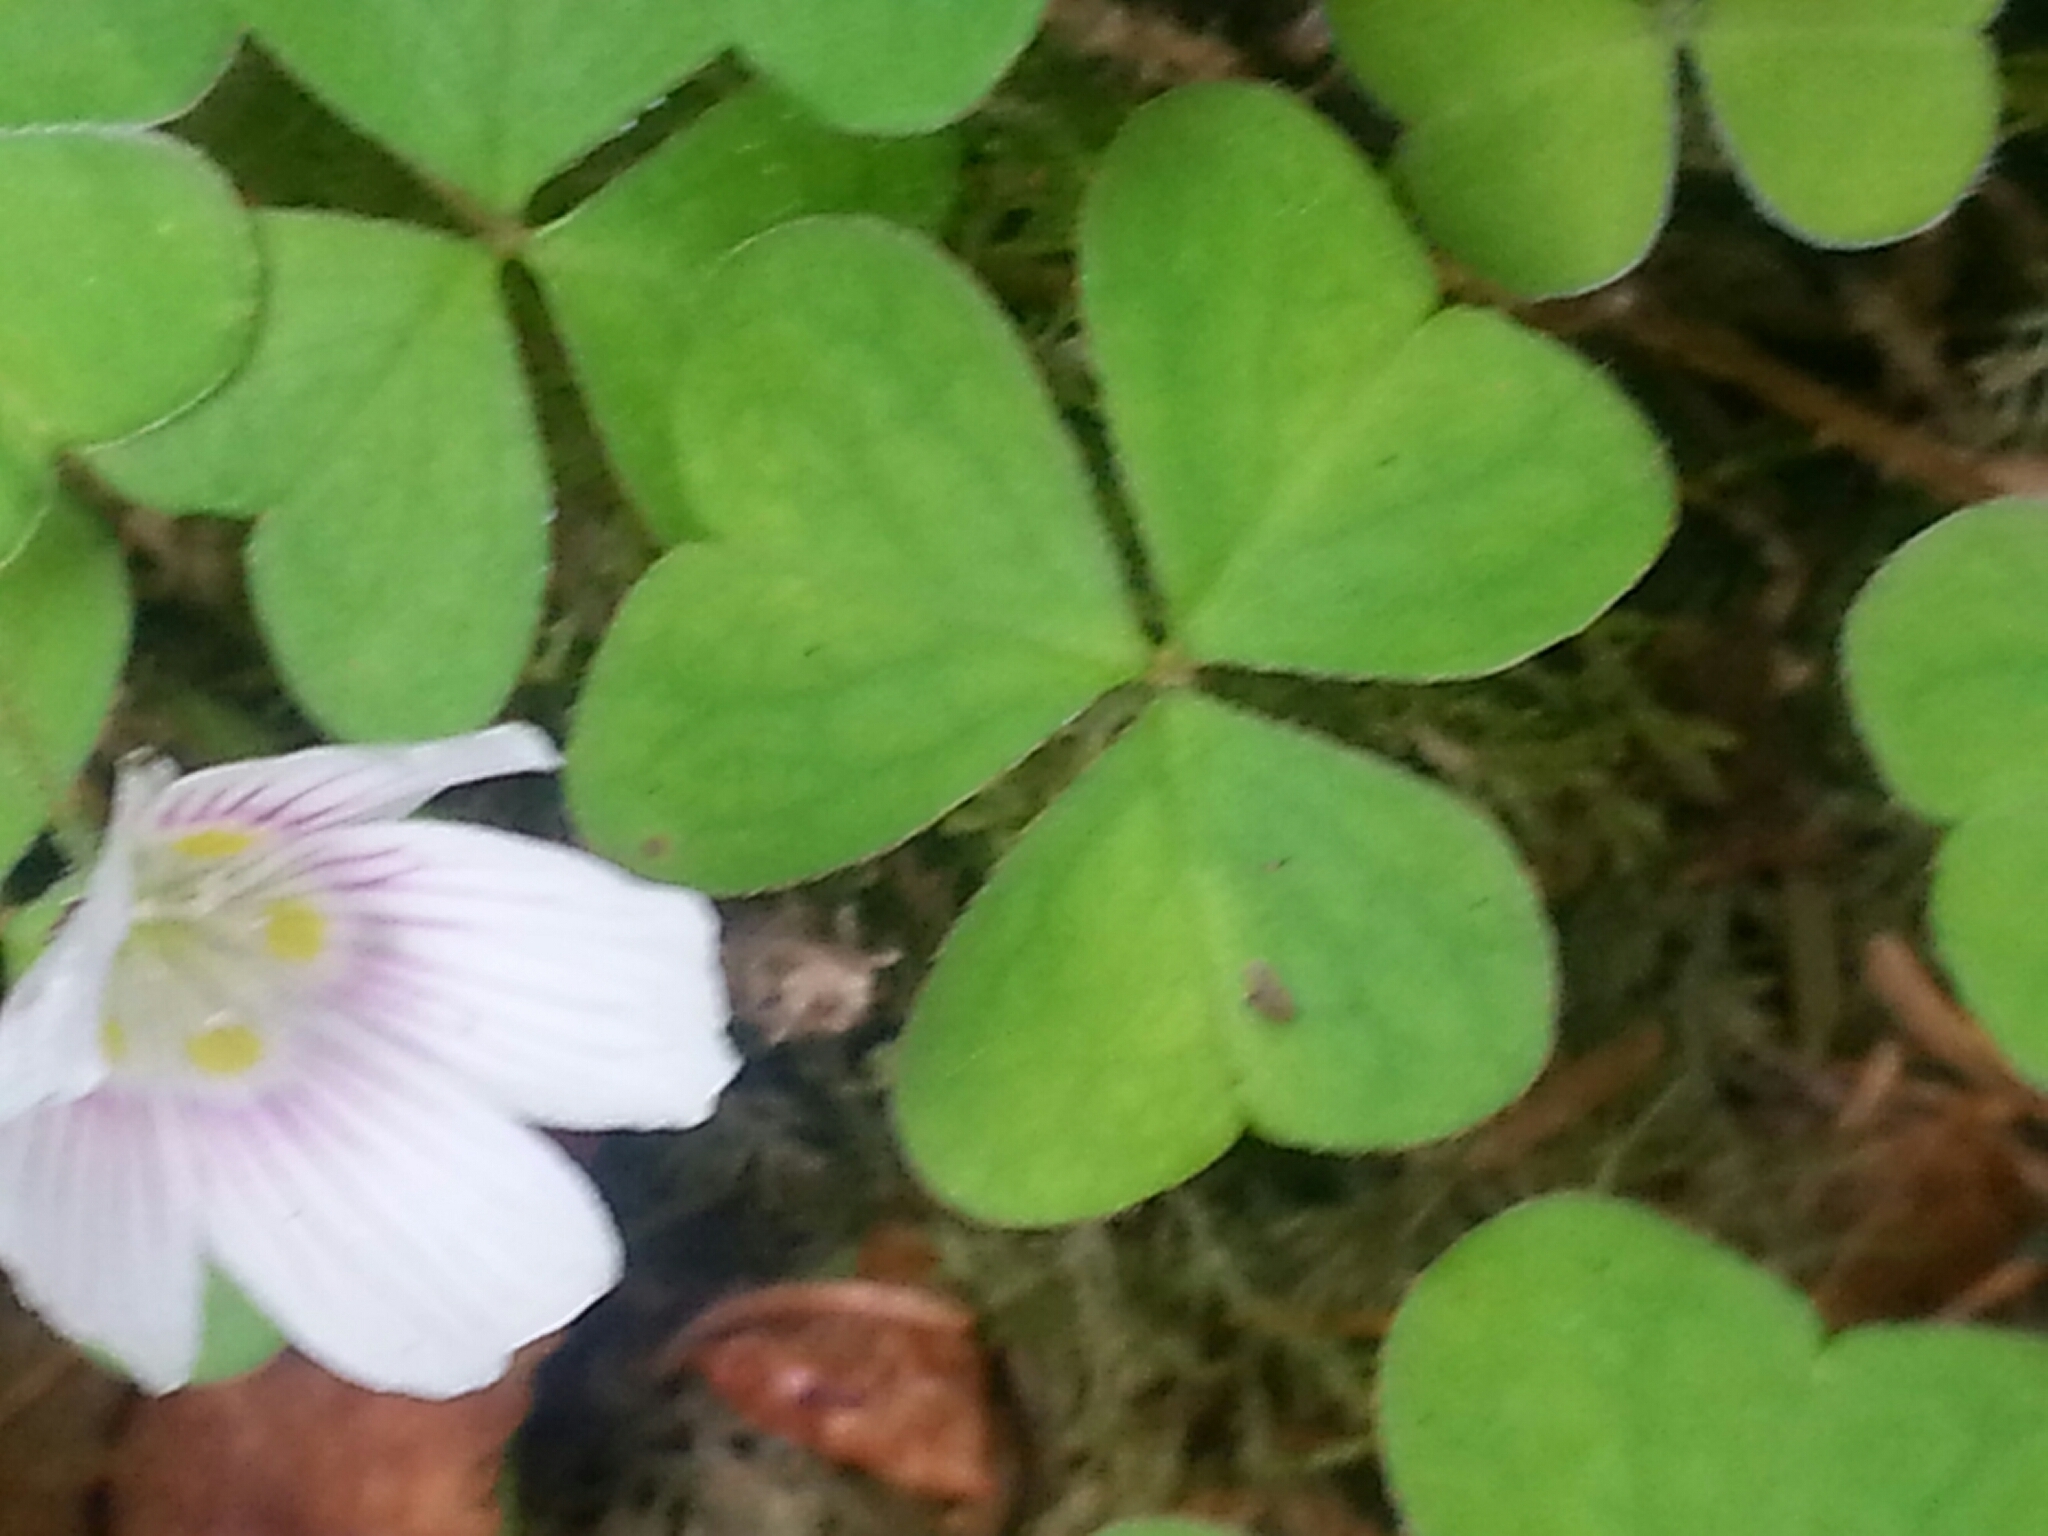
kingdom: Plantae
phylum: Tracheophyta
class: Magnoliopsida
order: Oxalidales
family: Oxalidaceae
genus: Oxalis
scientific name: Oxalis montana
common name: American wood-sorrel
